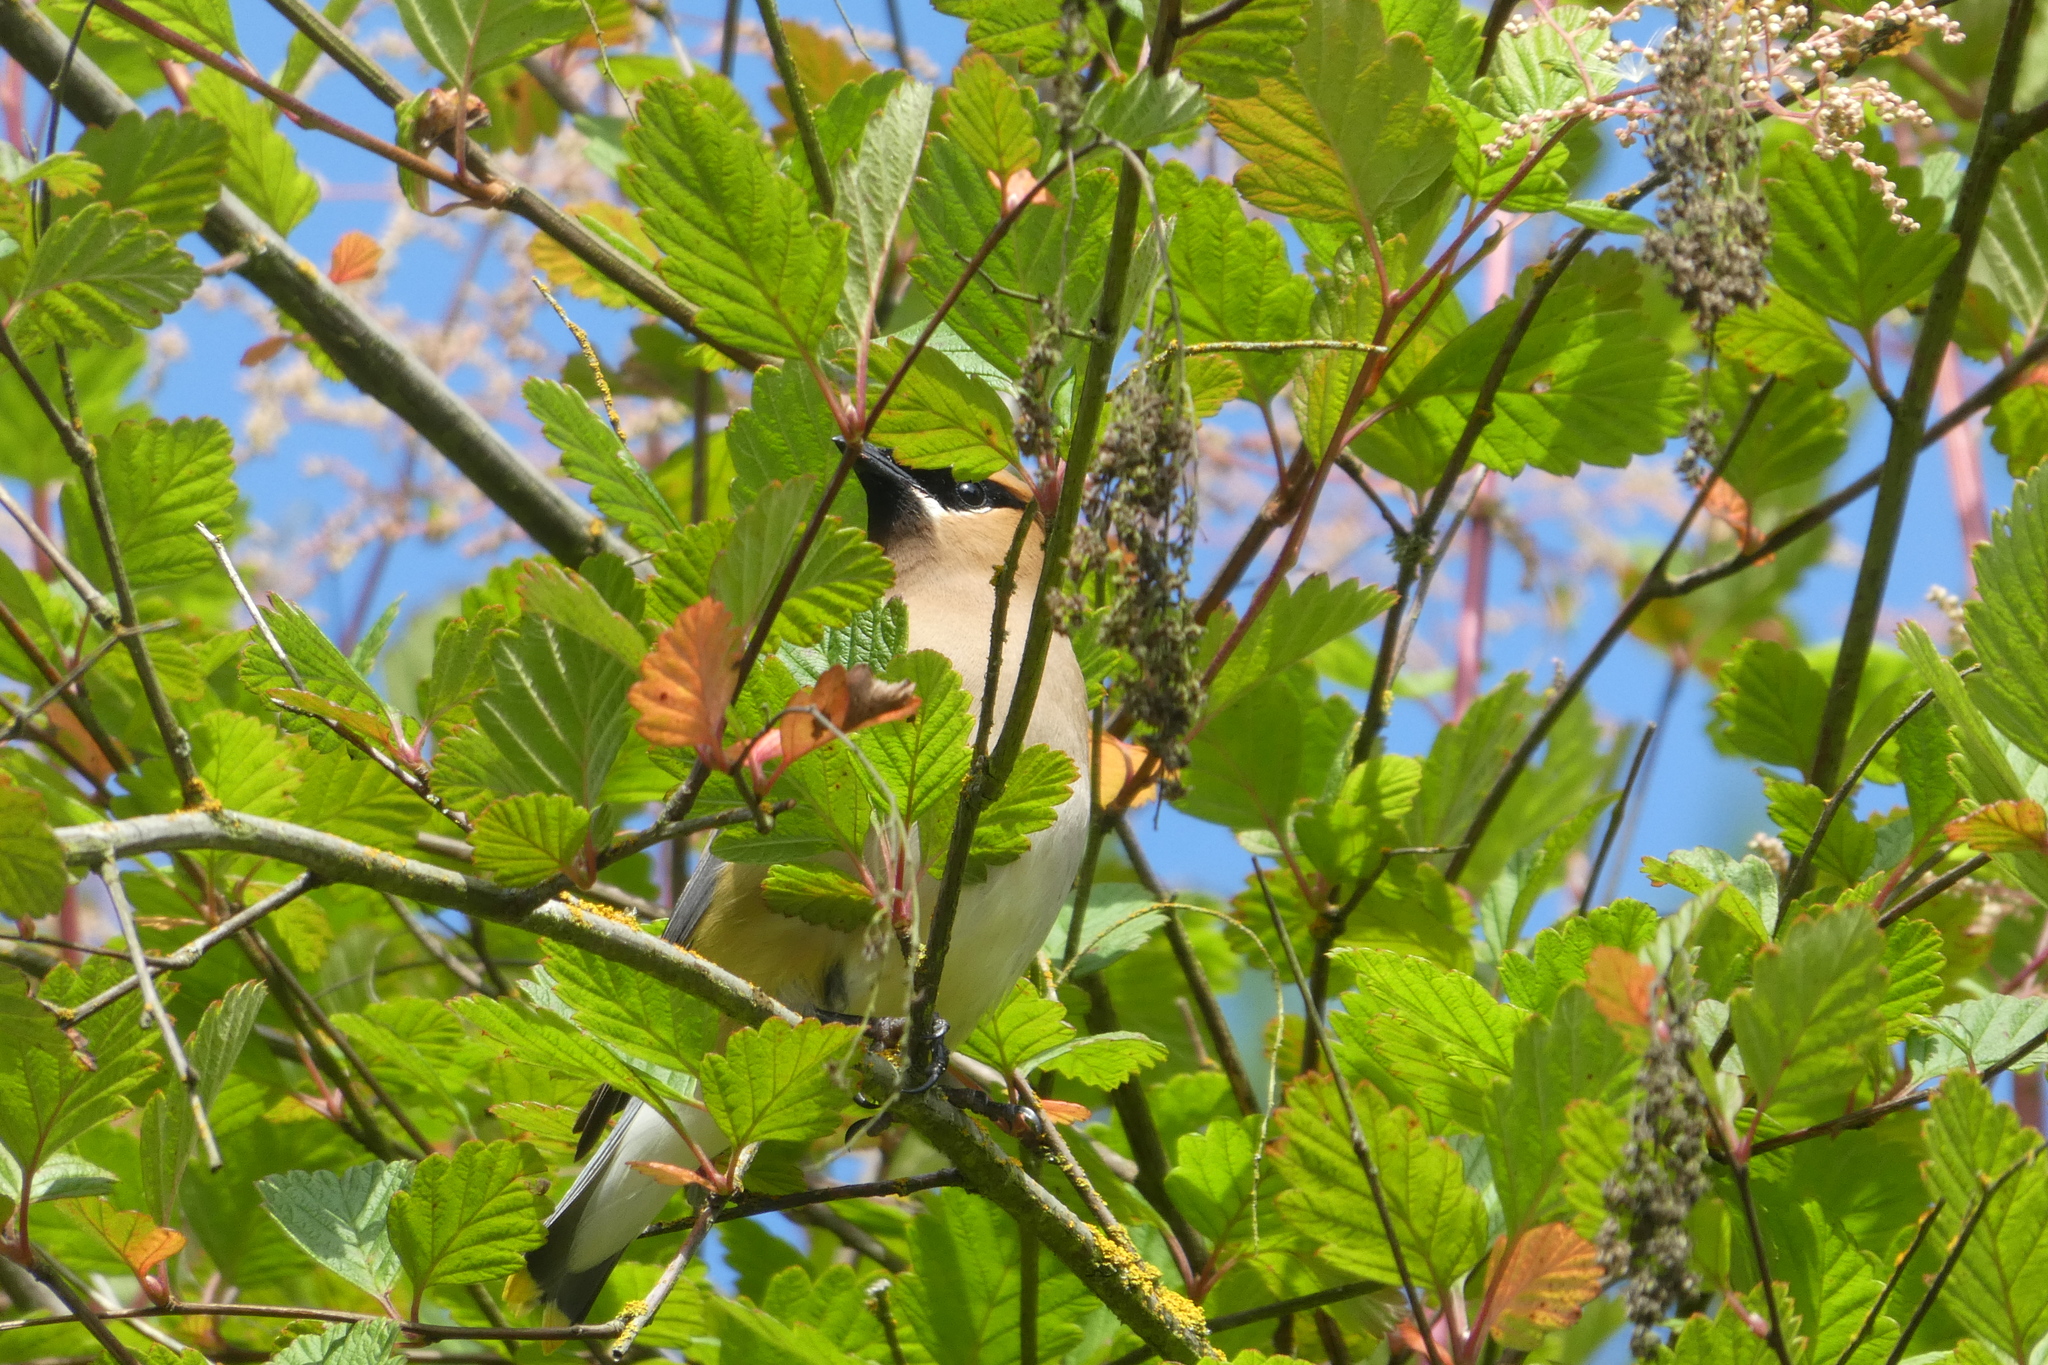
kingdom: Animalia
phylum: Chordata
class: Aves
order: Passeriformes
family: Bombycillidae
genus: Bombycilla
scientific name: Bombycilla cedrorum
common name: Cedar waxwing
